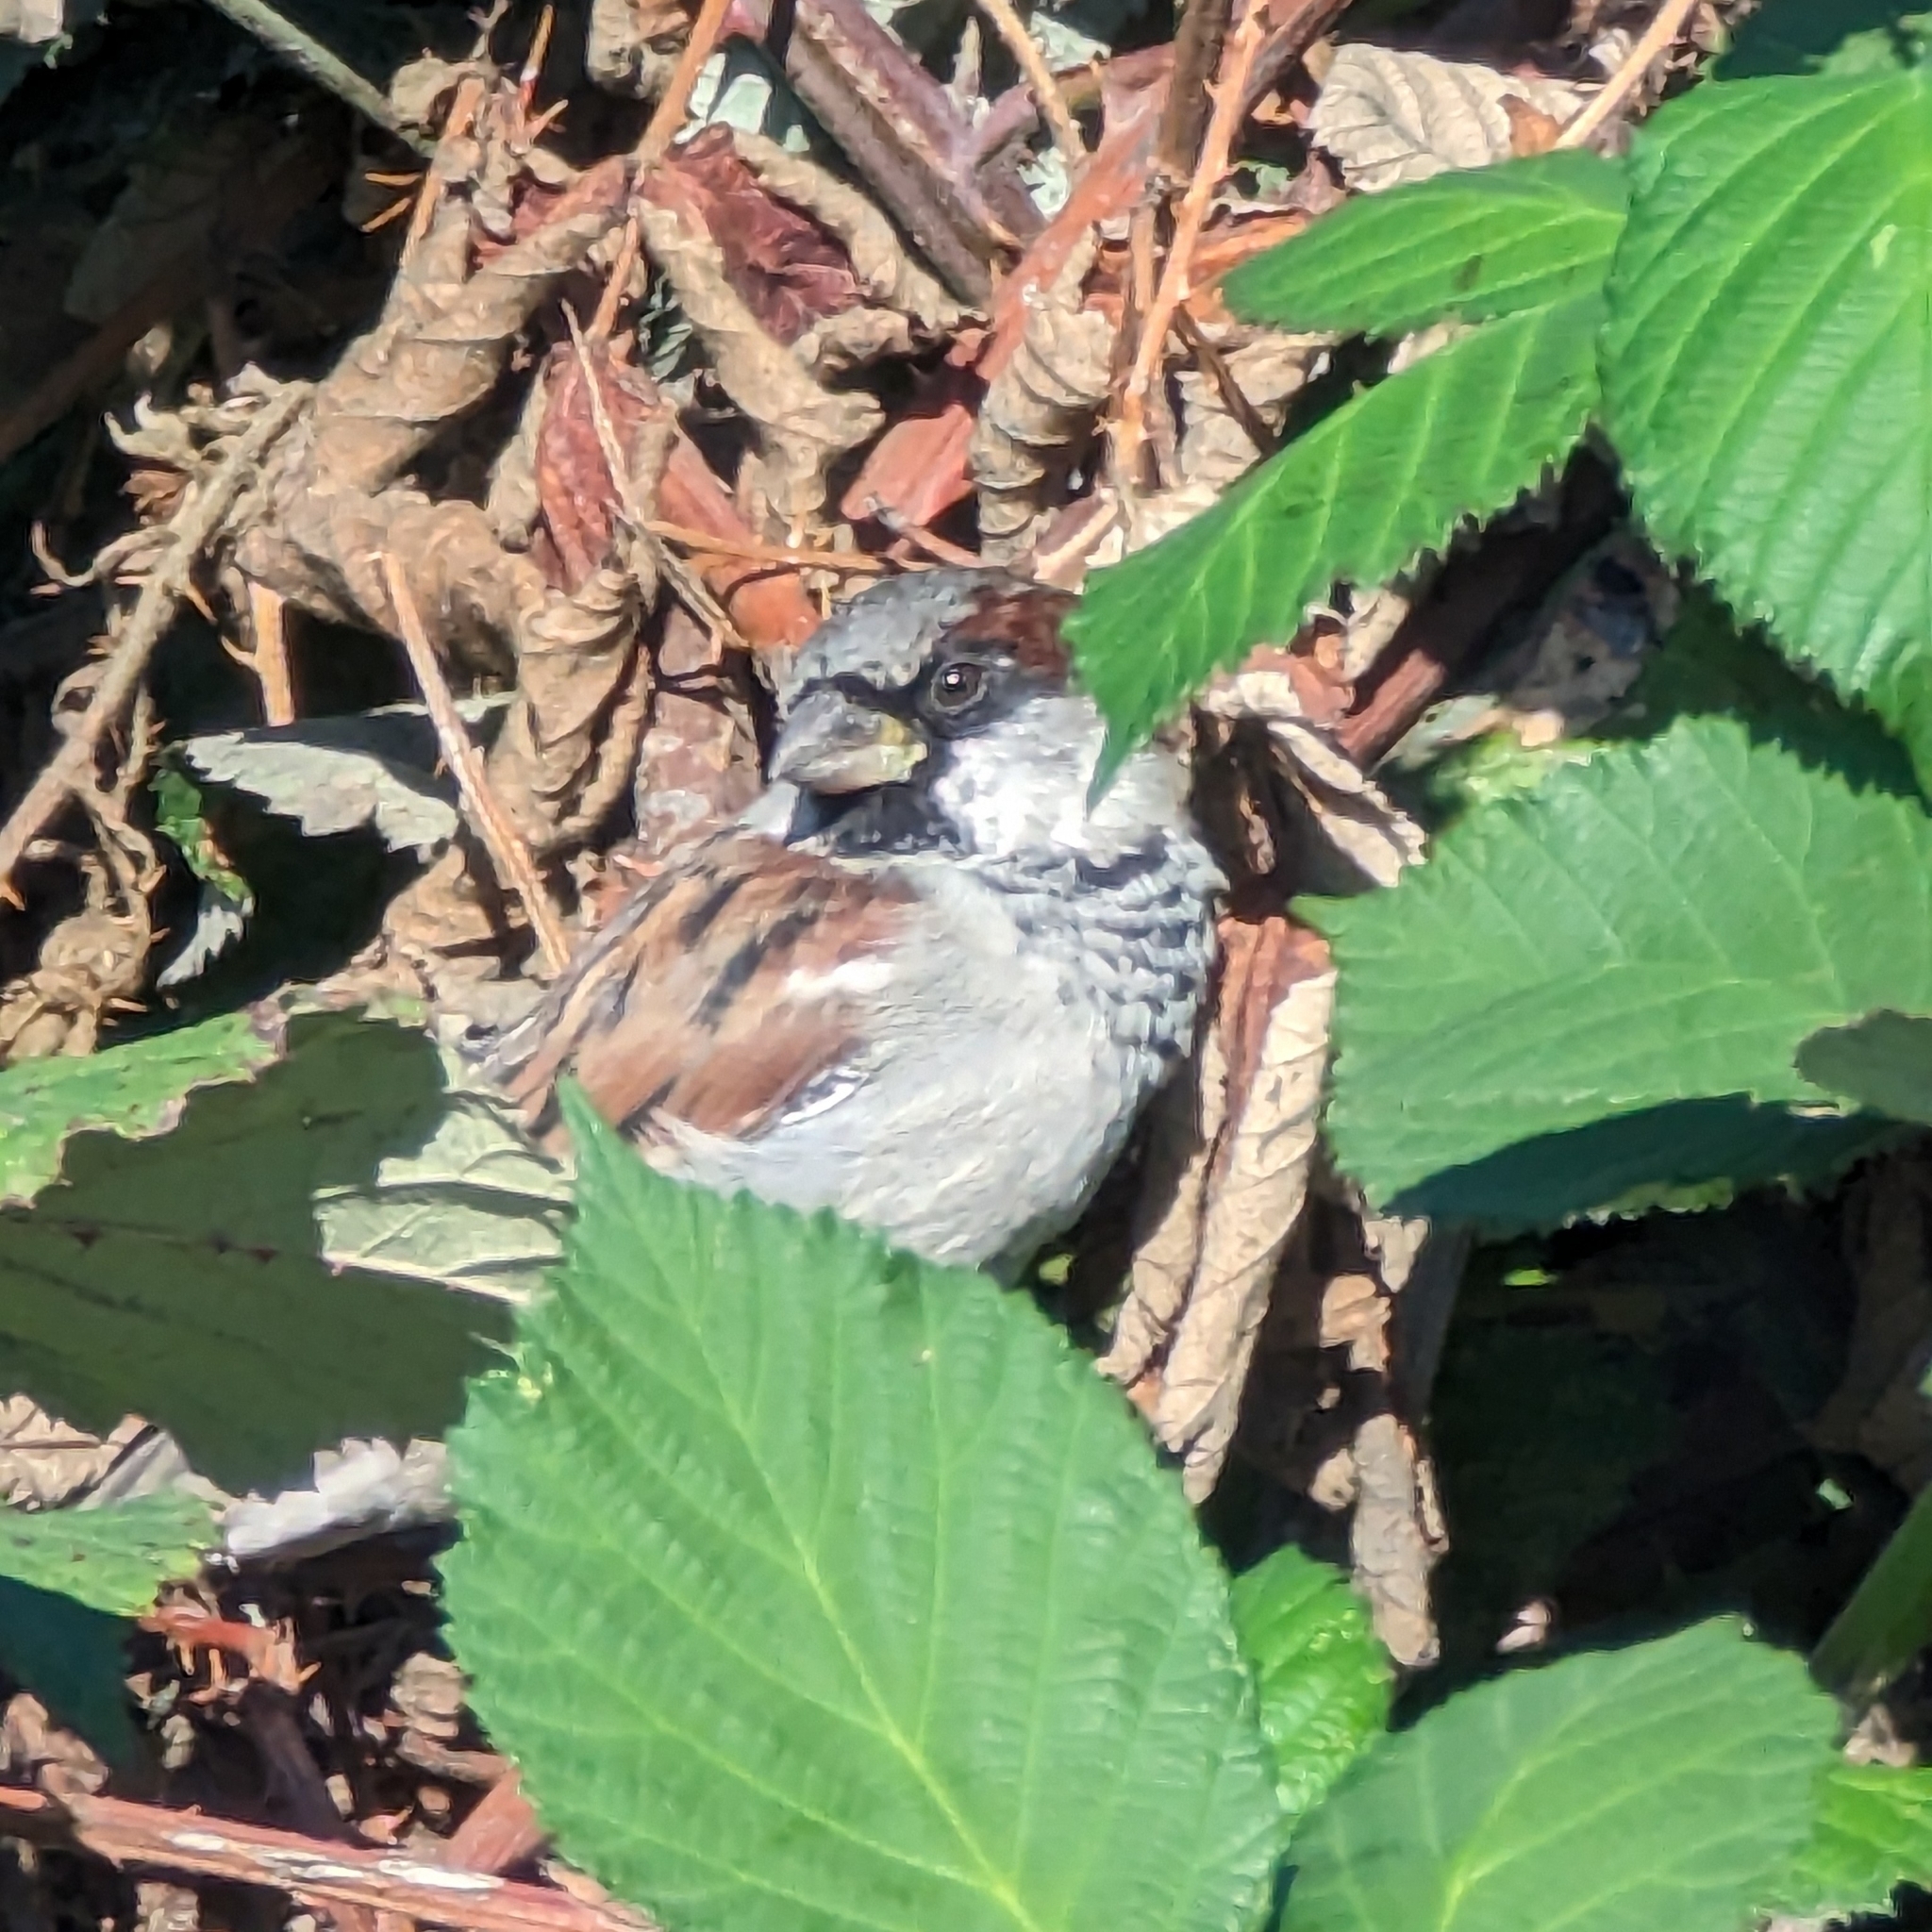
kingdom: Animalia
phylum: Chordata
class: Aves
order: Passeriformes
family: Passeridae
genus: Passer
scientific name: Passer domesticus
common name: House sparrow
